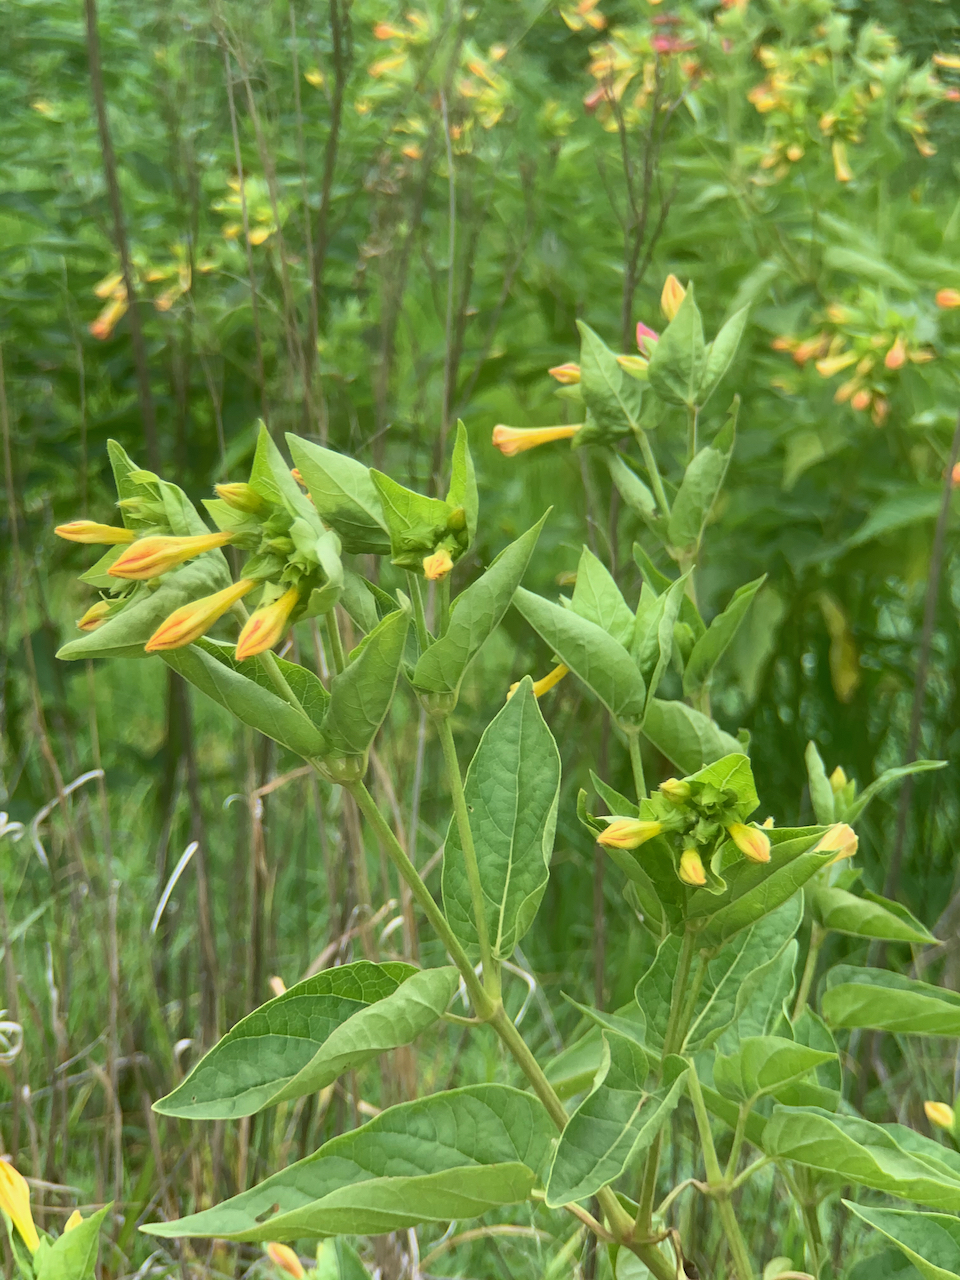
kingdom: Plantae
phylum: Tracheophyta
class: Magnoliopsida
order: Caryophyllales
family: Nyctaginaceae
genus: Mirabilis
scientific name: Mirabilis jalapa
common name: Marvel-of-peru
